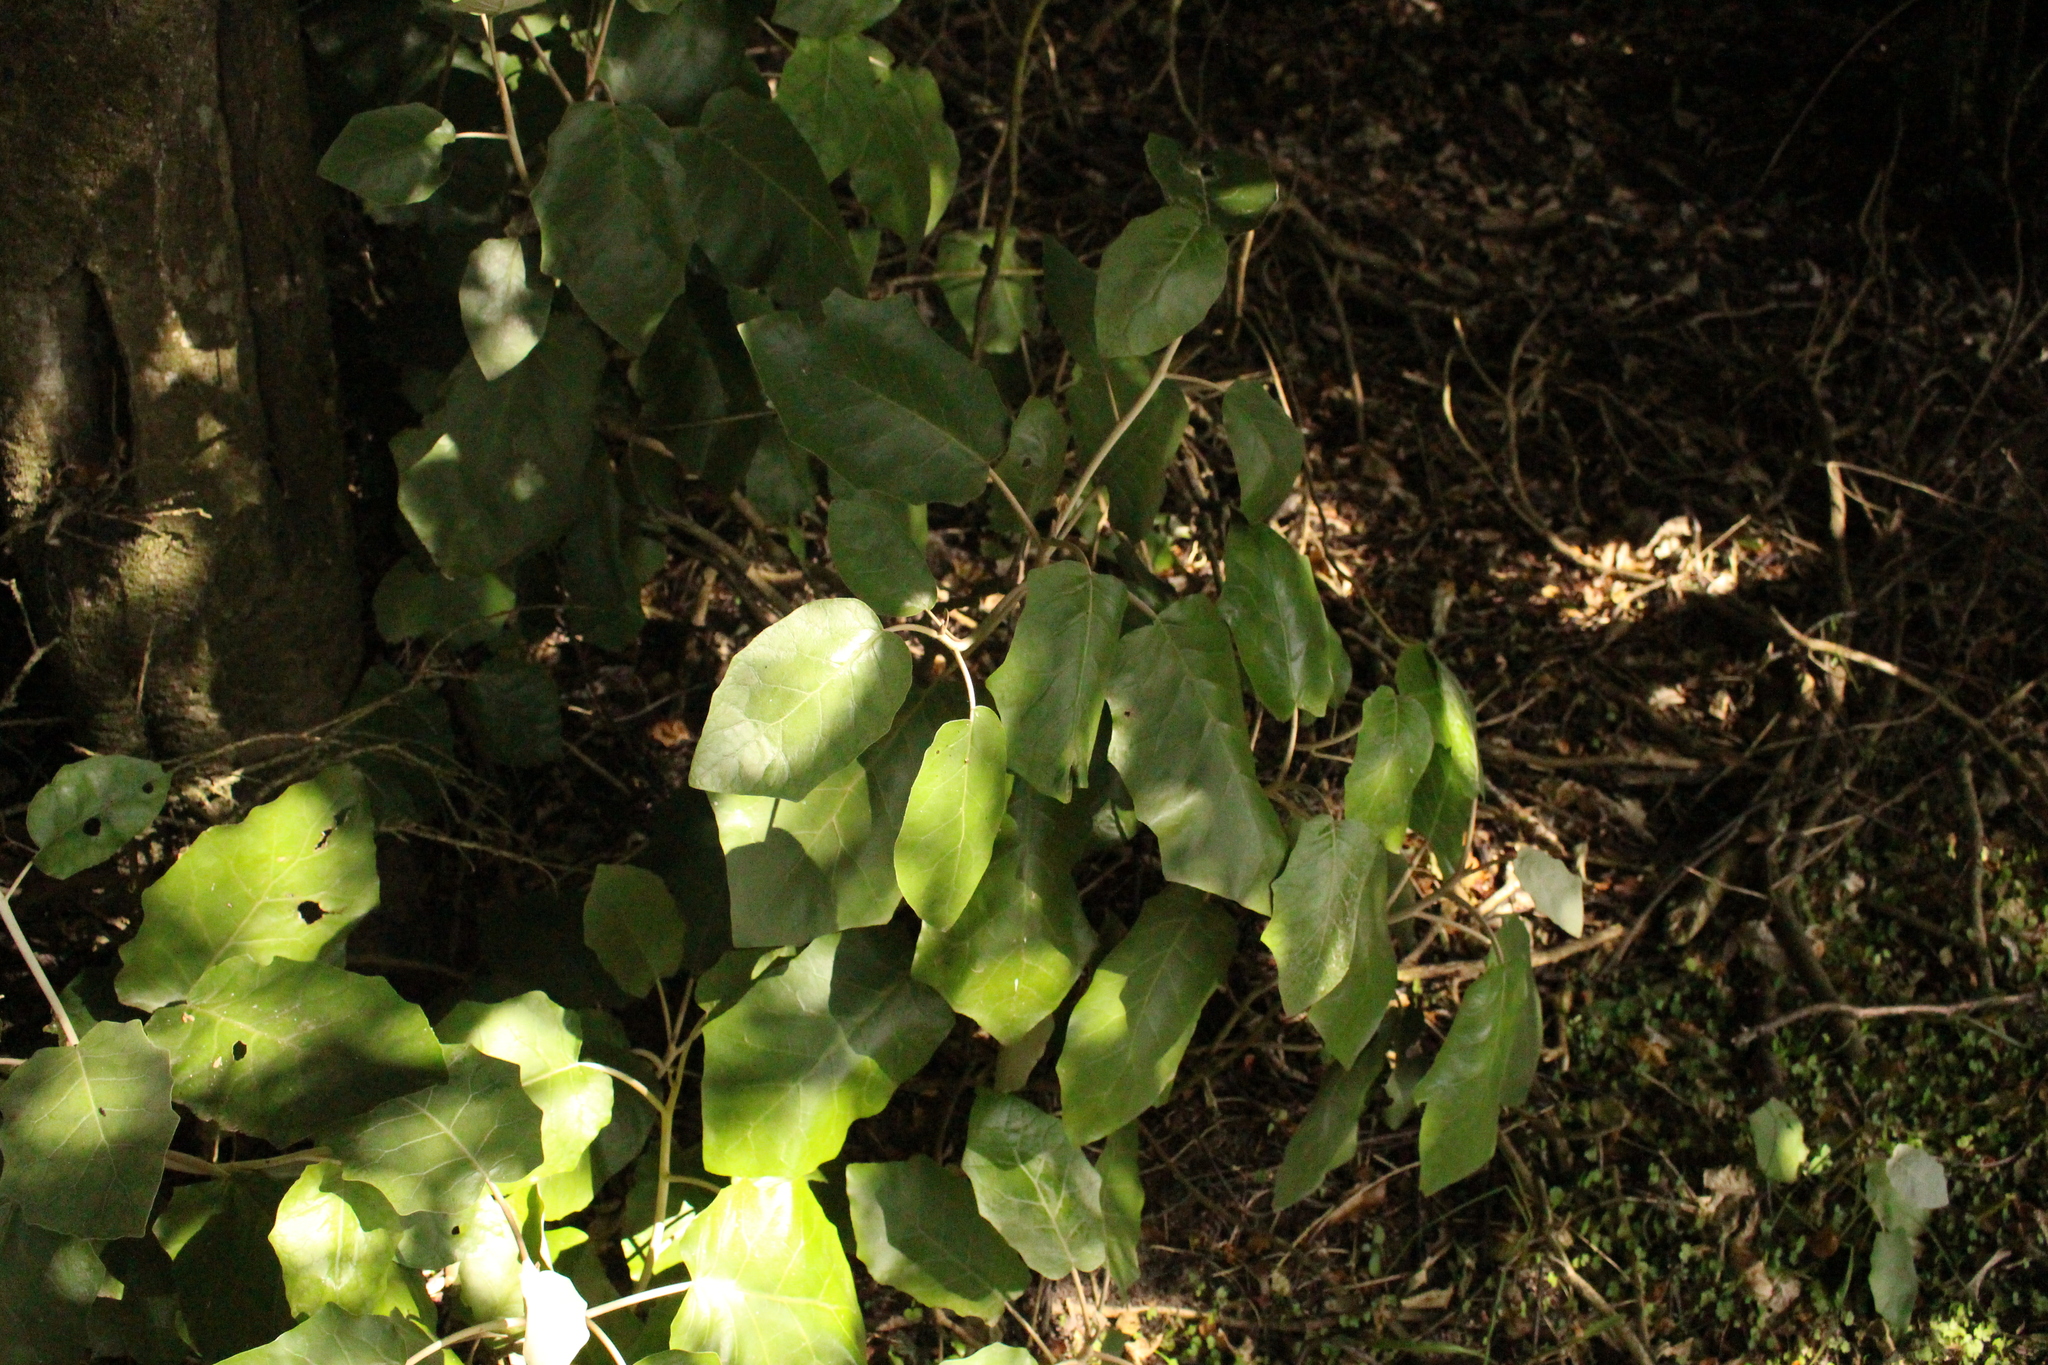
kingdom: Plantae
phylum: Tracheophyta
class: Magnoliopsida
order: Asterales
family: Asteraceae
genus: Brachyglottis
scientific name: Brachyglottis repanda
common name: Hedge ragwort
